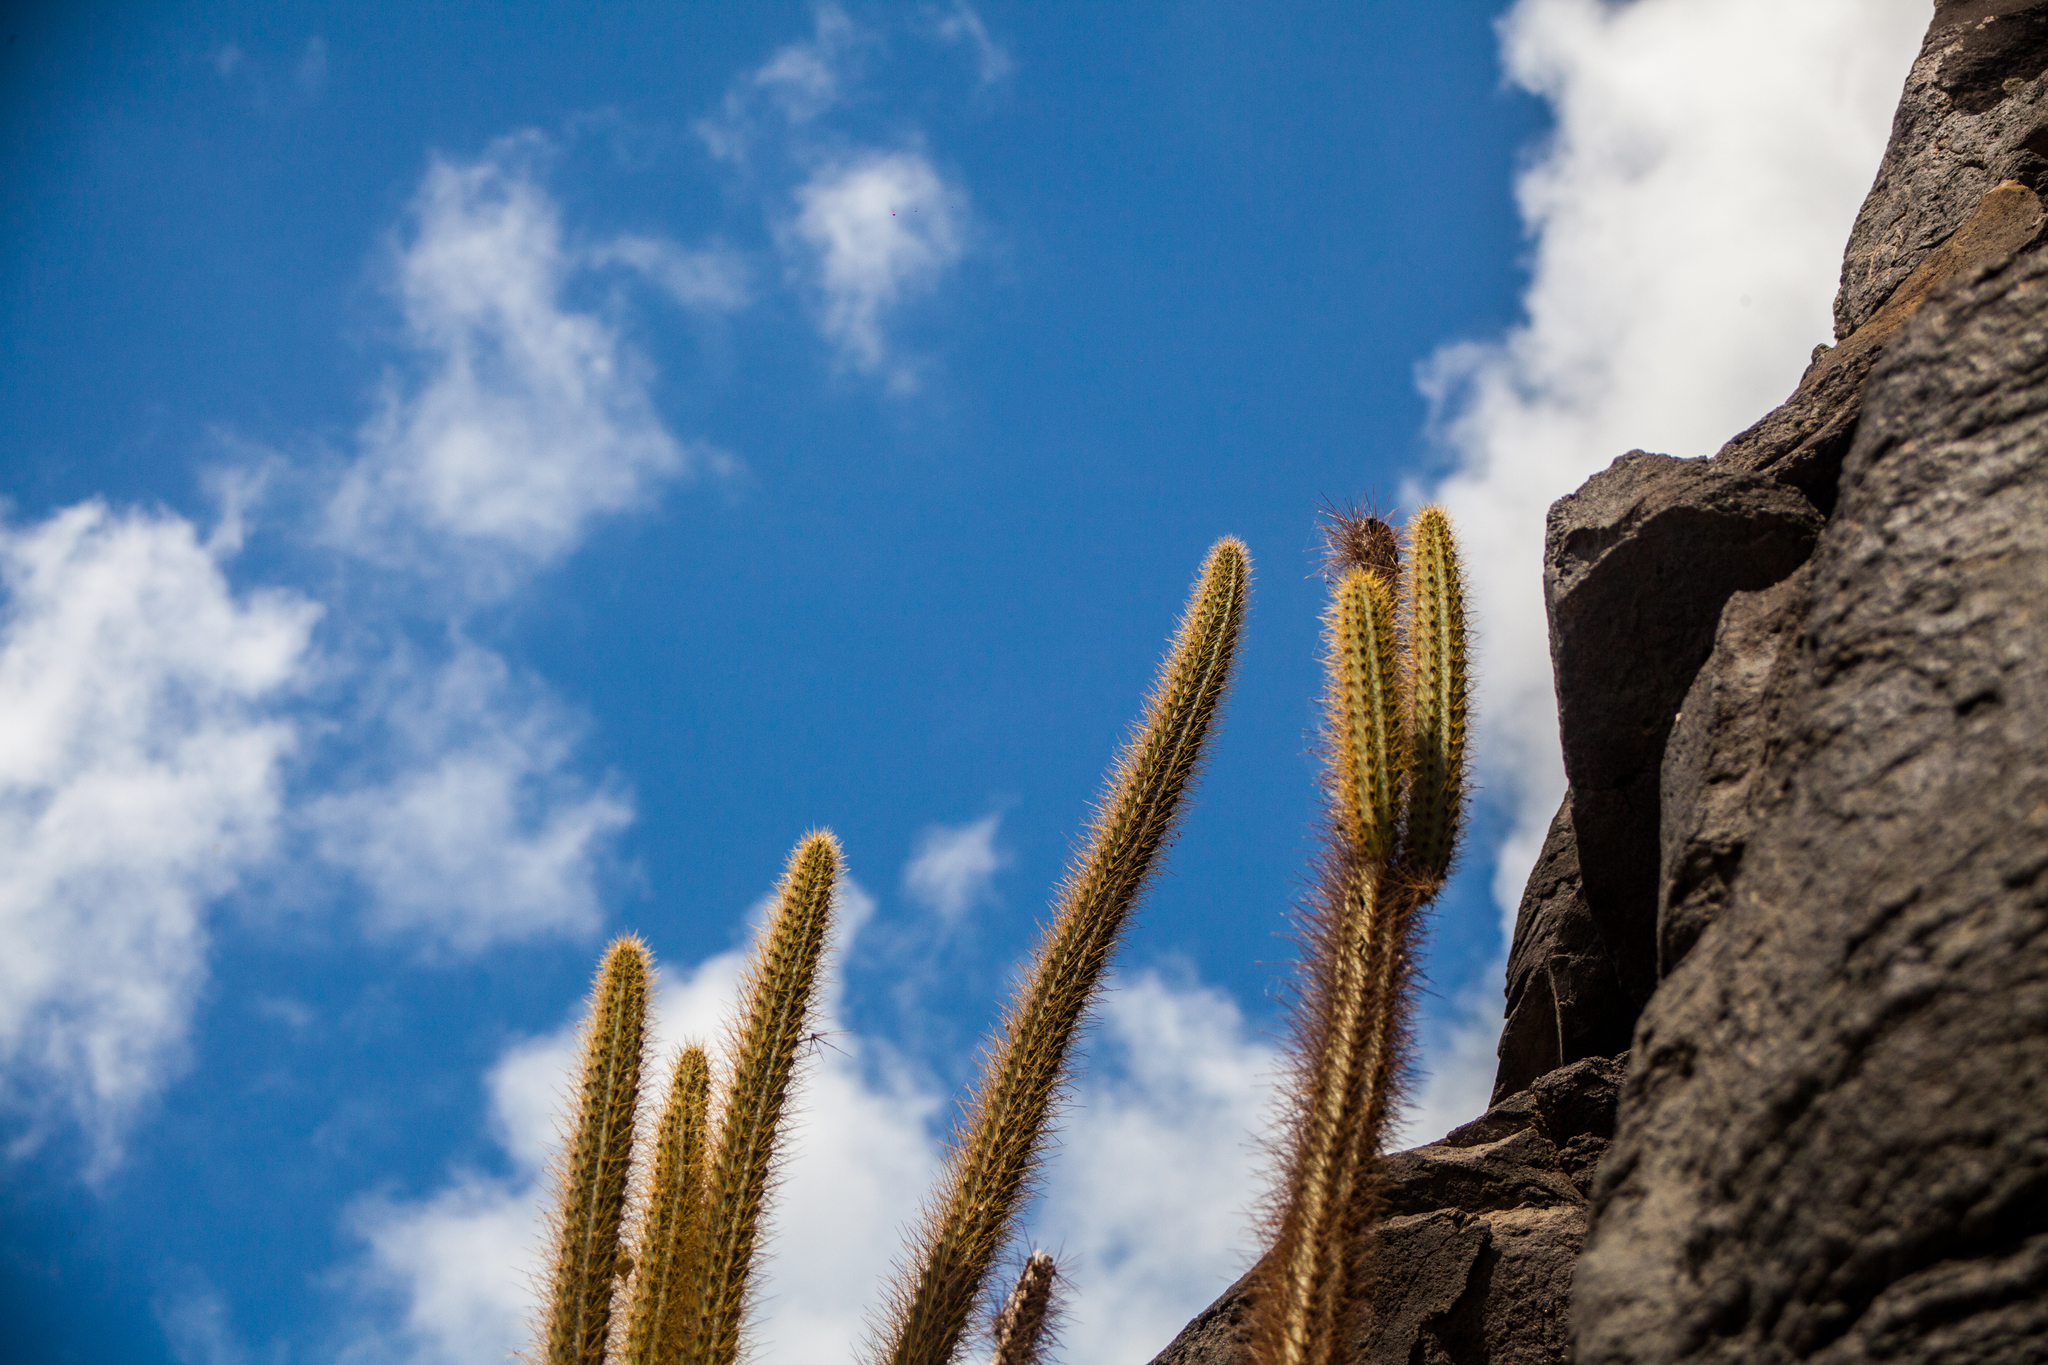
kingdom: Plantae
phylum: Tracheophyta
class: Magnoliopsida
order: Caryophyllales
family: Cactaceae
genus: Cereus
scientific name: Cereus insularis
